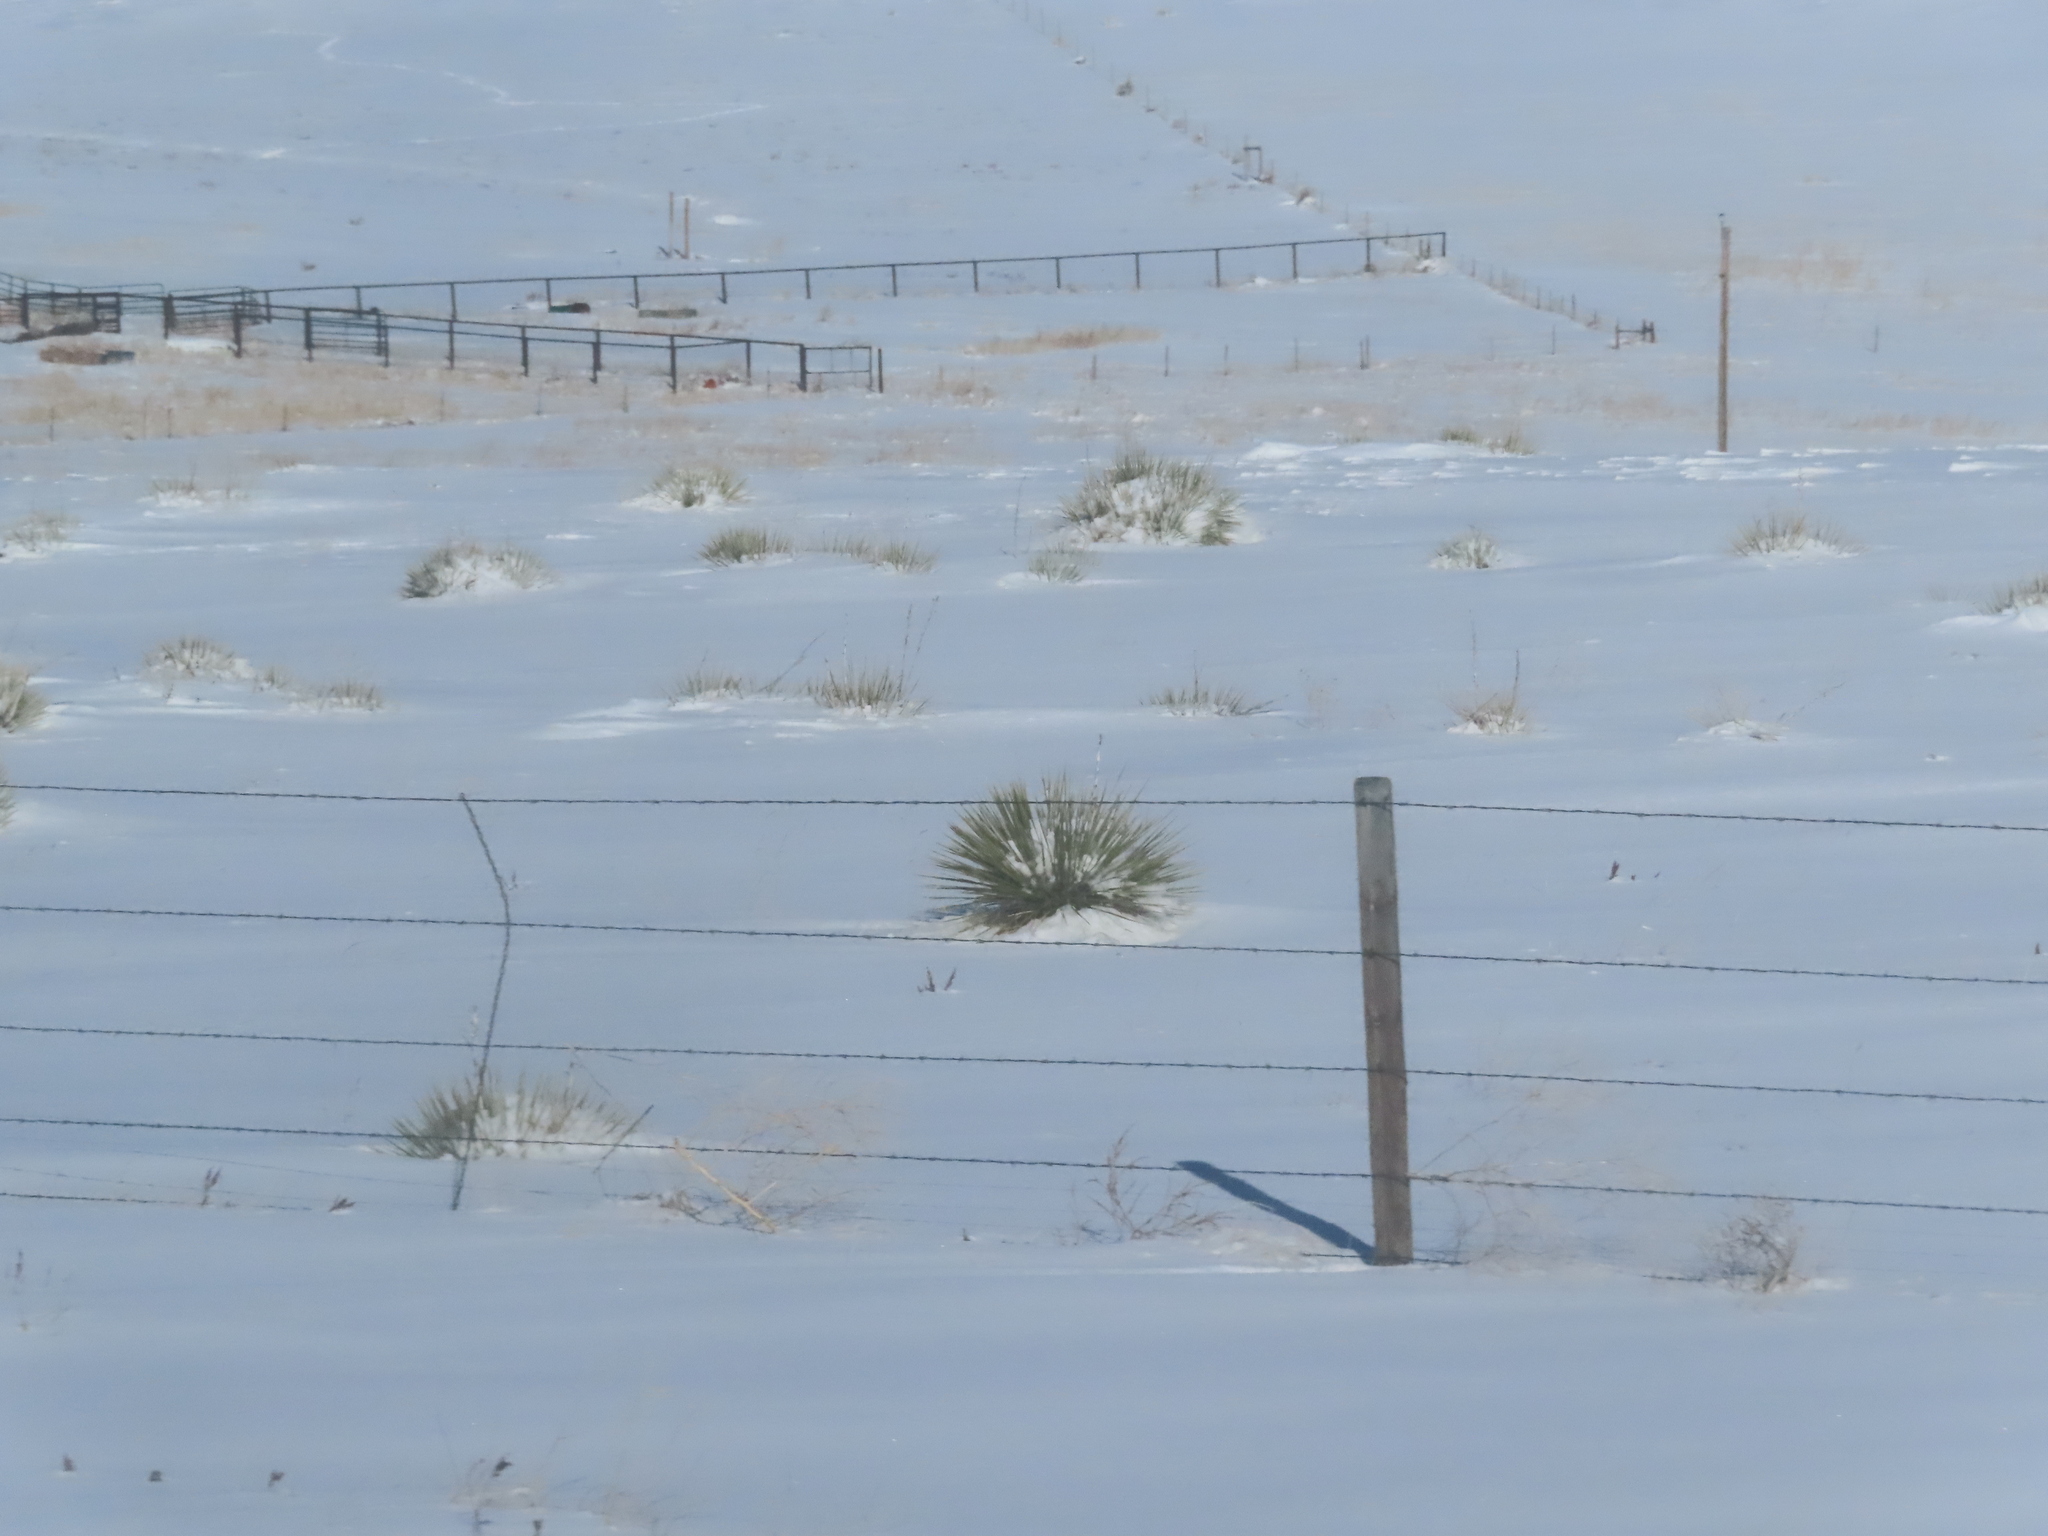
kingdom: Plantae
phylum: Tracheophyta
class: Liliopsida
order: Asparagales
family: Asparagaceae
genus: Yucca
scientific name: Yucca glauca
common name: Great plains yucca
